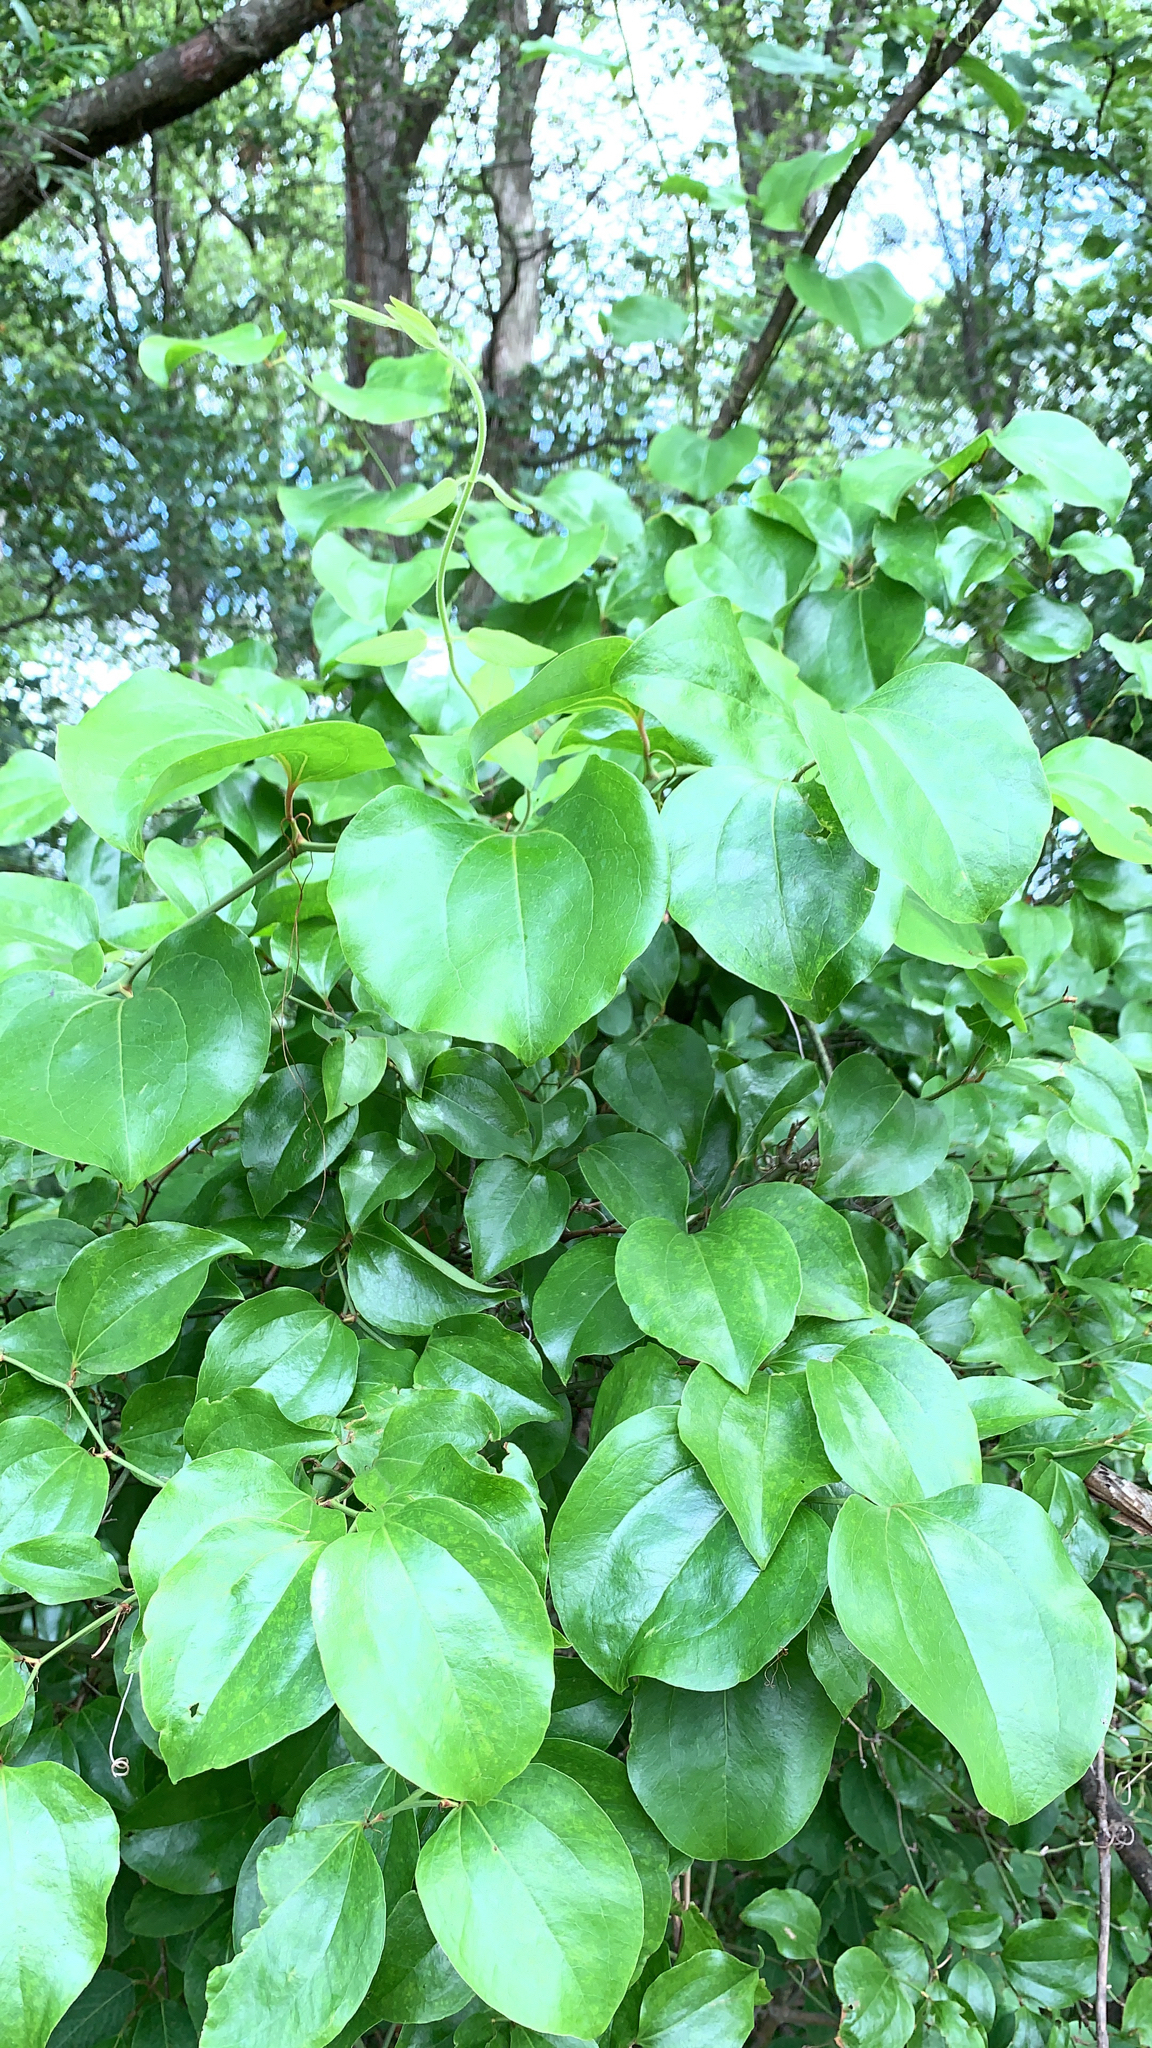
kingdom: Plantae
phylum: Tracheophyta
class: Liliopsida
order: Liliales
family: Smilacaceae
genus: Smilax
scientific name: Smilax rotundifolia
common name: Bullbriar
